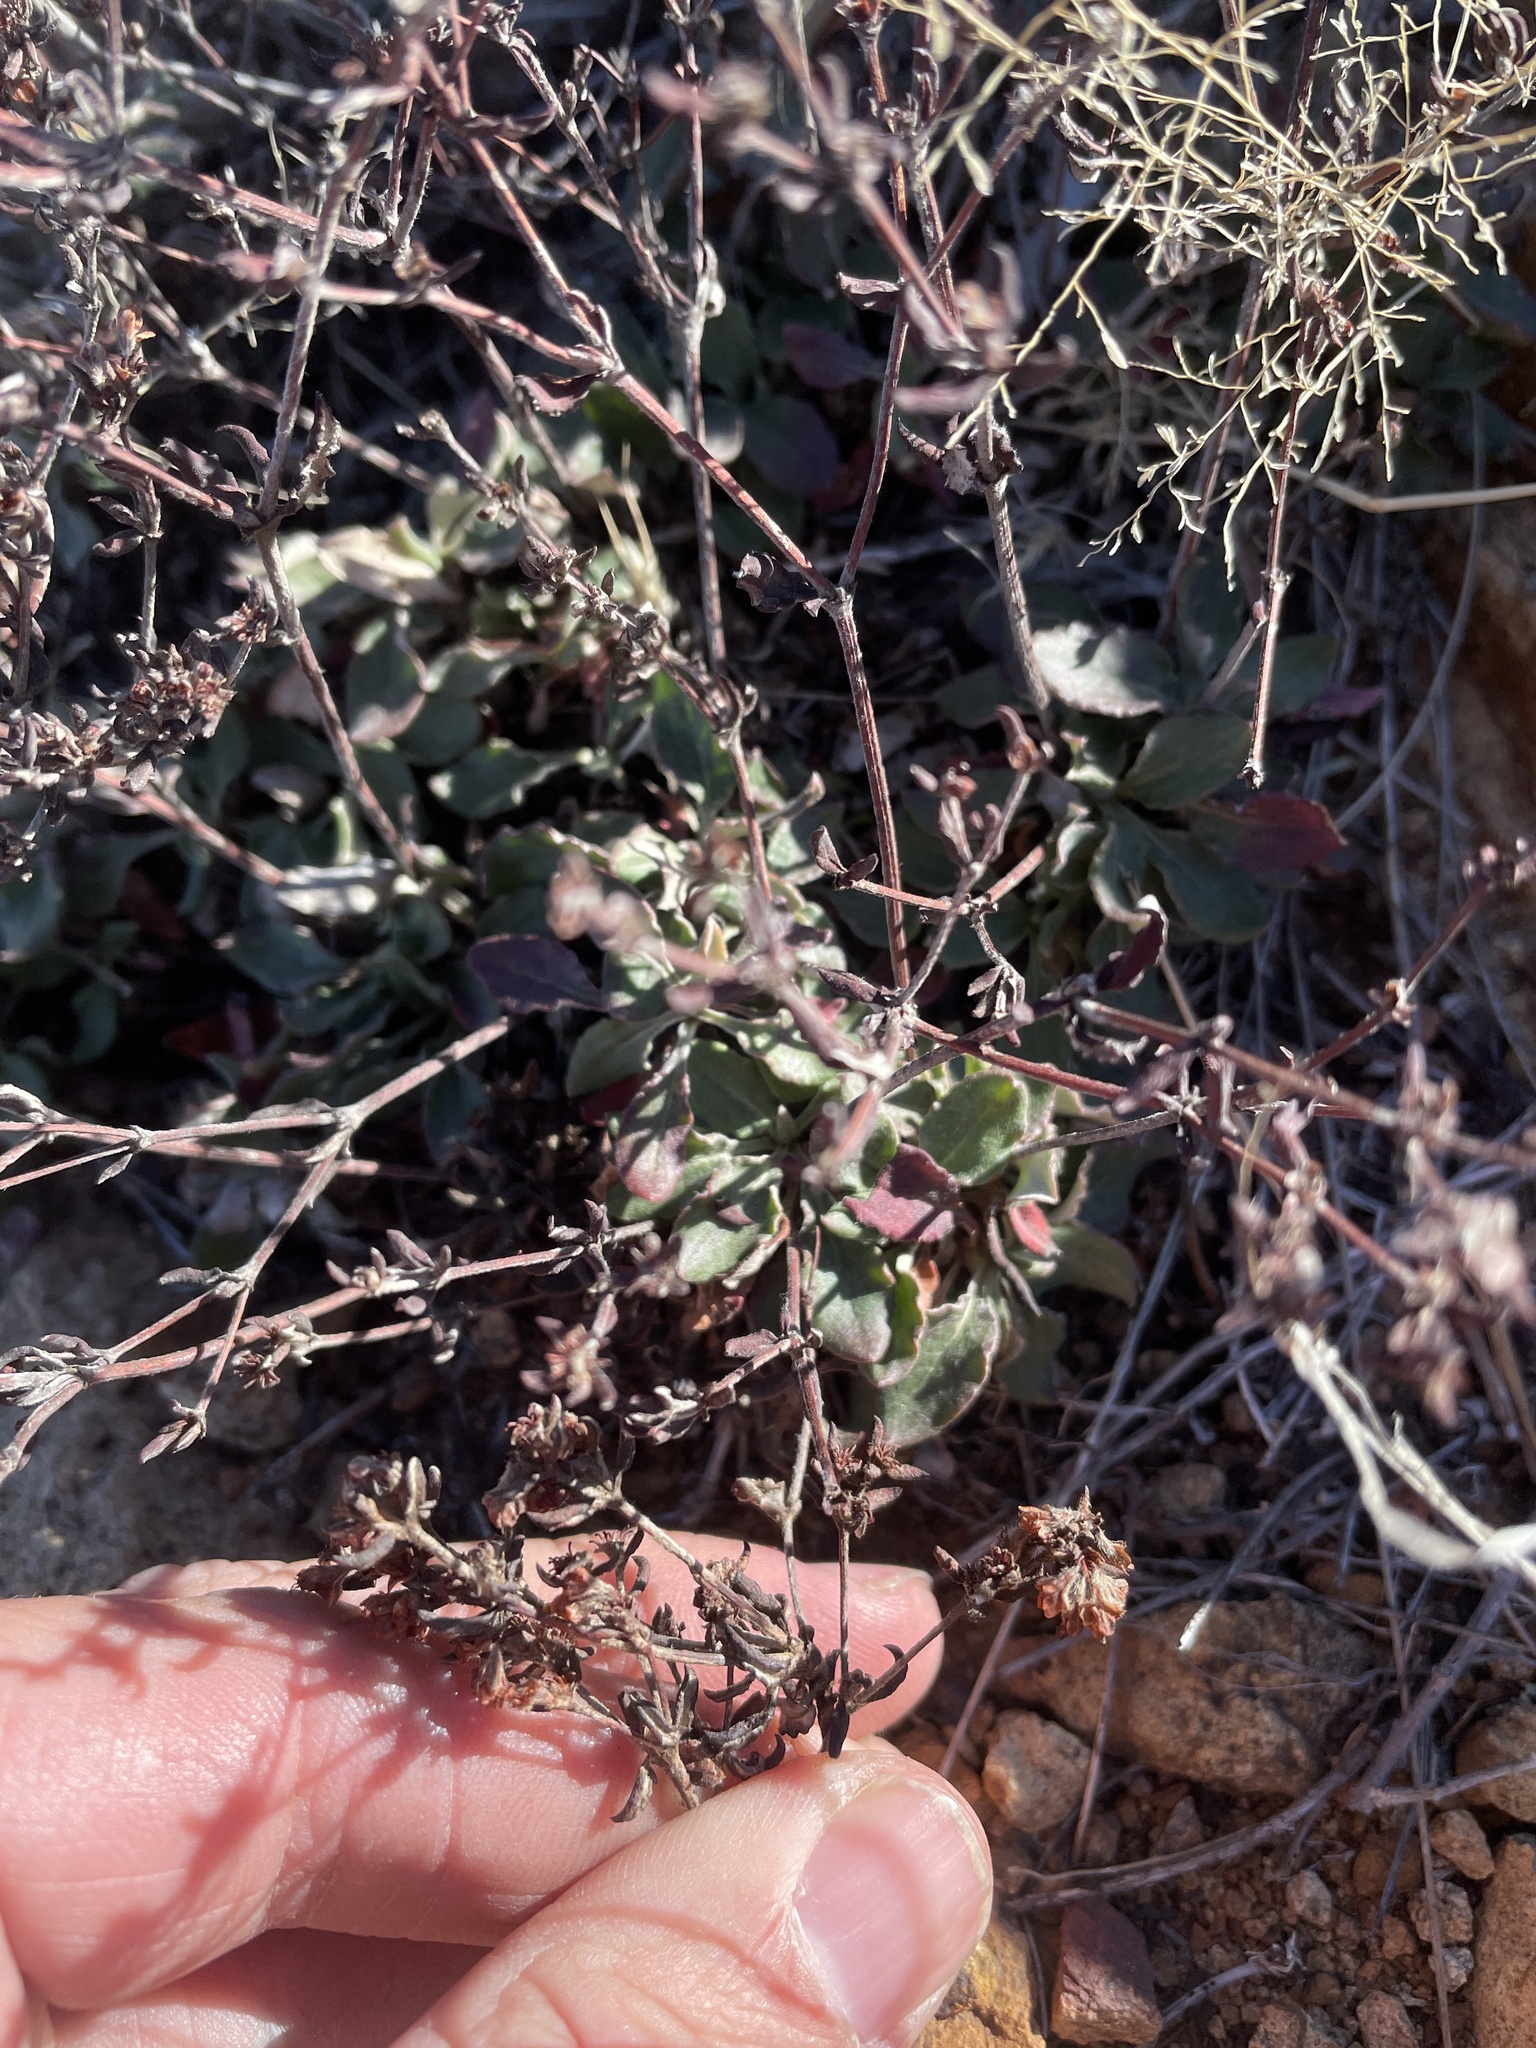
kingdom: Plantae
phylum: Tracheophyta
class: Magnoliopsida
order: Caryophyllales
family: Polygonaceae
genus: Eriogonum
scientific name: Eriogonum jamesii
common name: Antelope-sage
